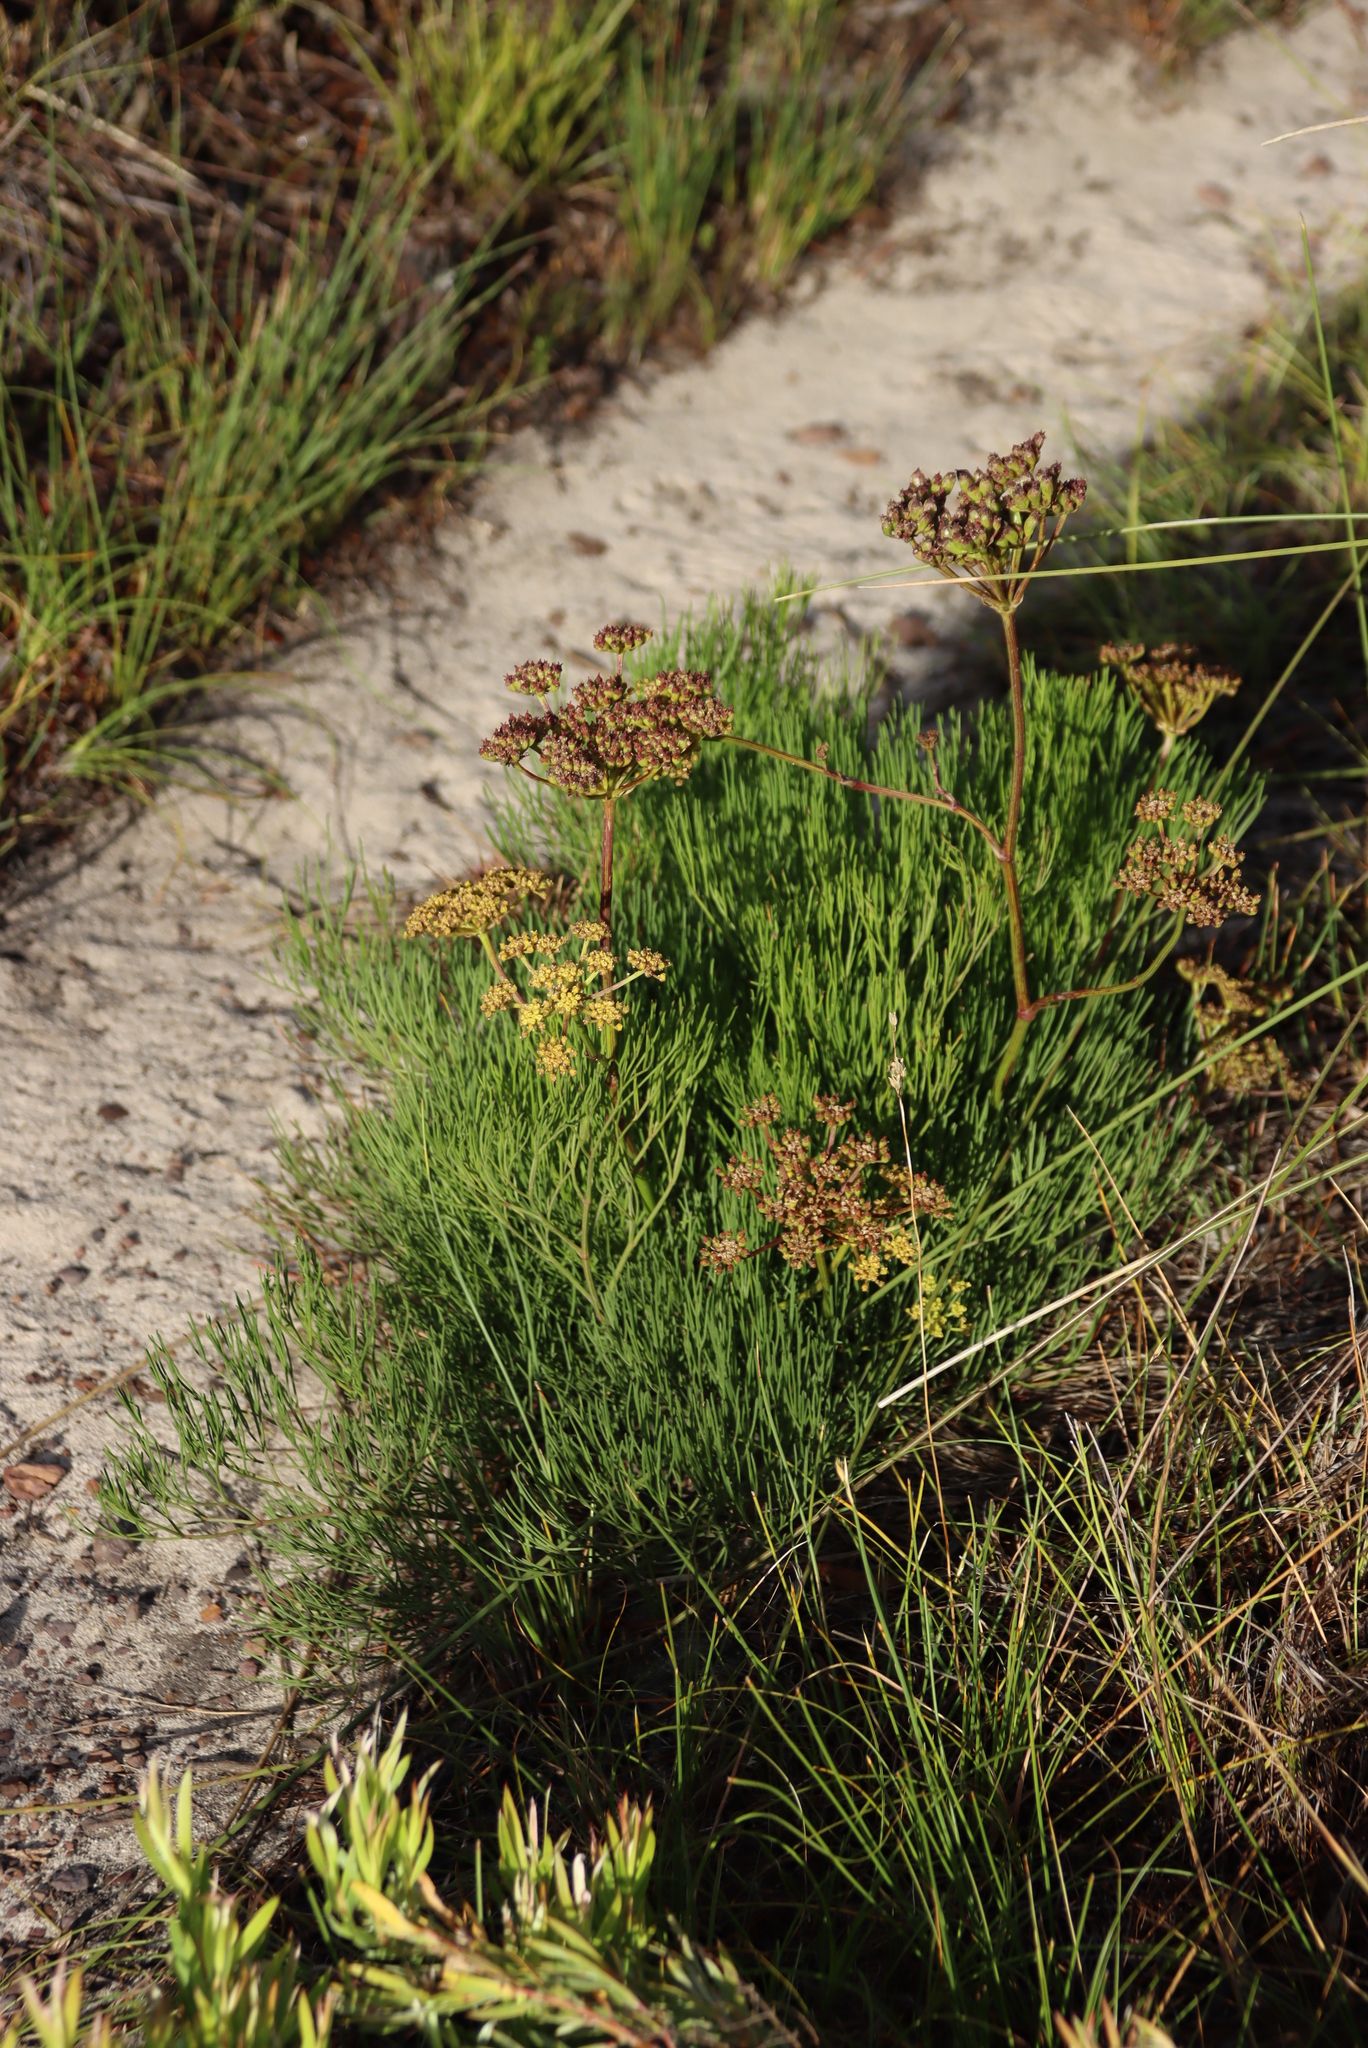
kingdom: Plantae
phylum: Tracheophyta
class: Magnoliopsida
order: Apiales
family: Apiaceae
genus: Nanobubon
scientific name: Nanobubon strictum
